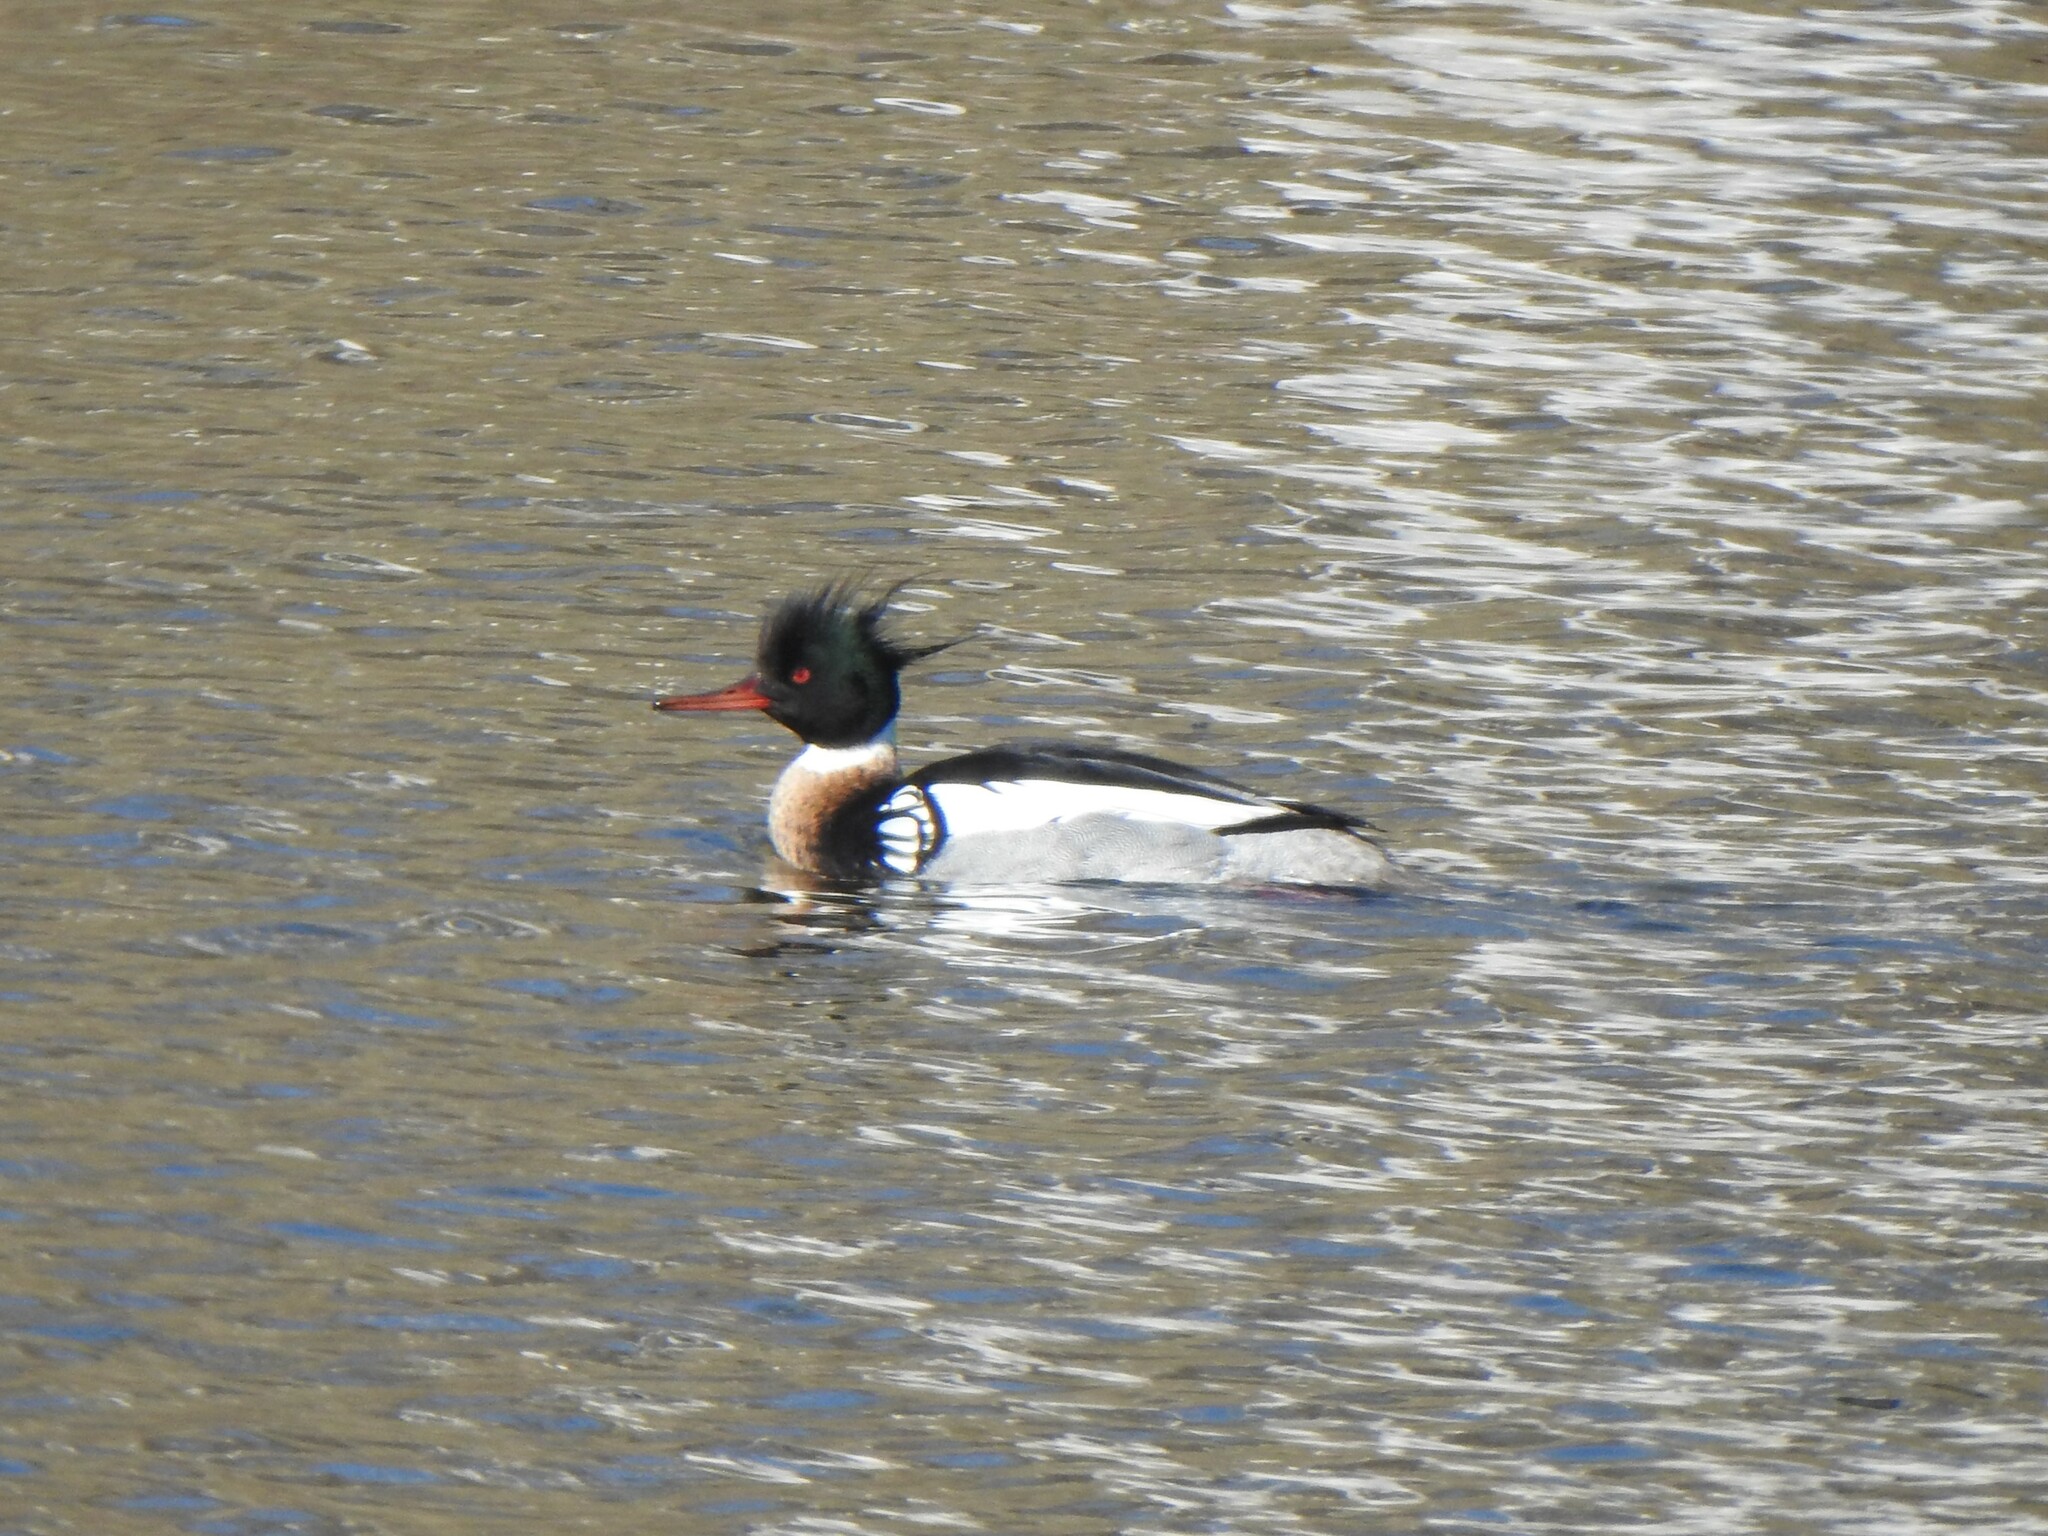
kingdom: Animalia
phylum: Chordata
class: Aves
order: Anseriformes
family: Anatidae
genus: Mergus
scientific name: Mergus serrator
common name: Red-breasted merganser
